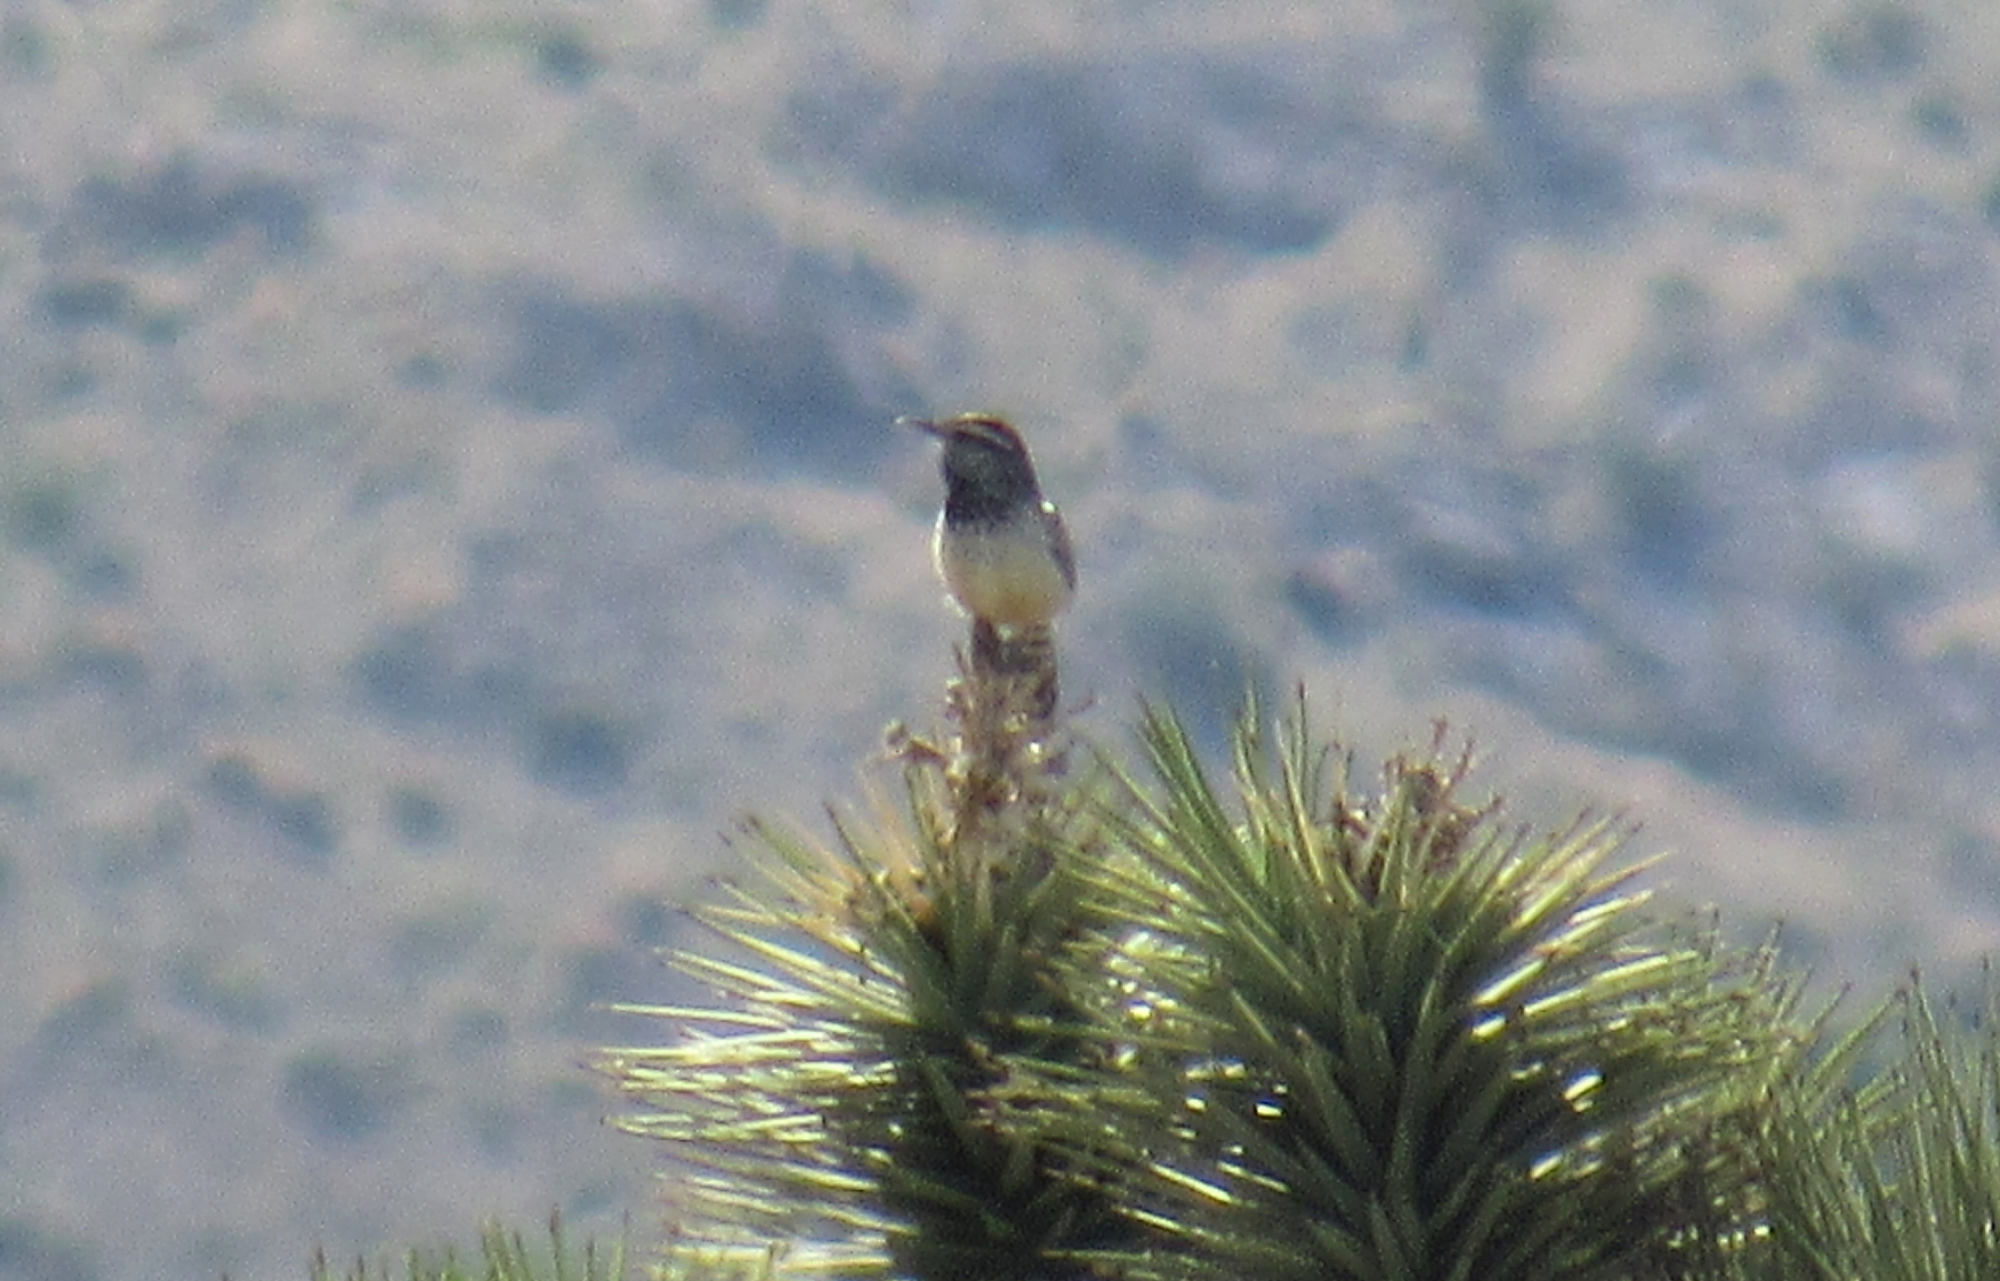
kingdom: Animalia
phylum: Chordata
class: Aves
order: Passeriformes
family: Troglodytidae
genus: Campylorhynchus
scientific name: Campylorhynchus brunneicapillus
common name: Cactus wren
